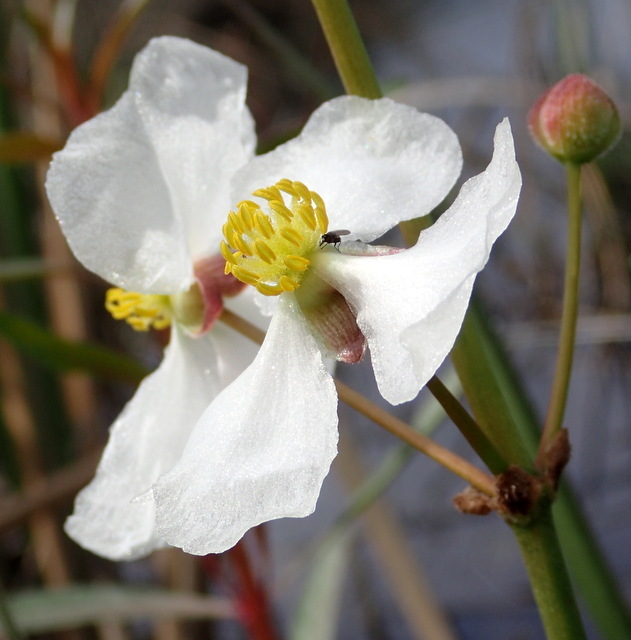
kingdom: Plantae
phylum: Tracheophyta
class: Liliopsida
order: Alismatales
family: Alismataceae
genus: Sagittaria
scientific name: Sagittaria lancifolia
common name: Lance-leaf arrowhead
